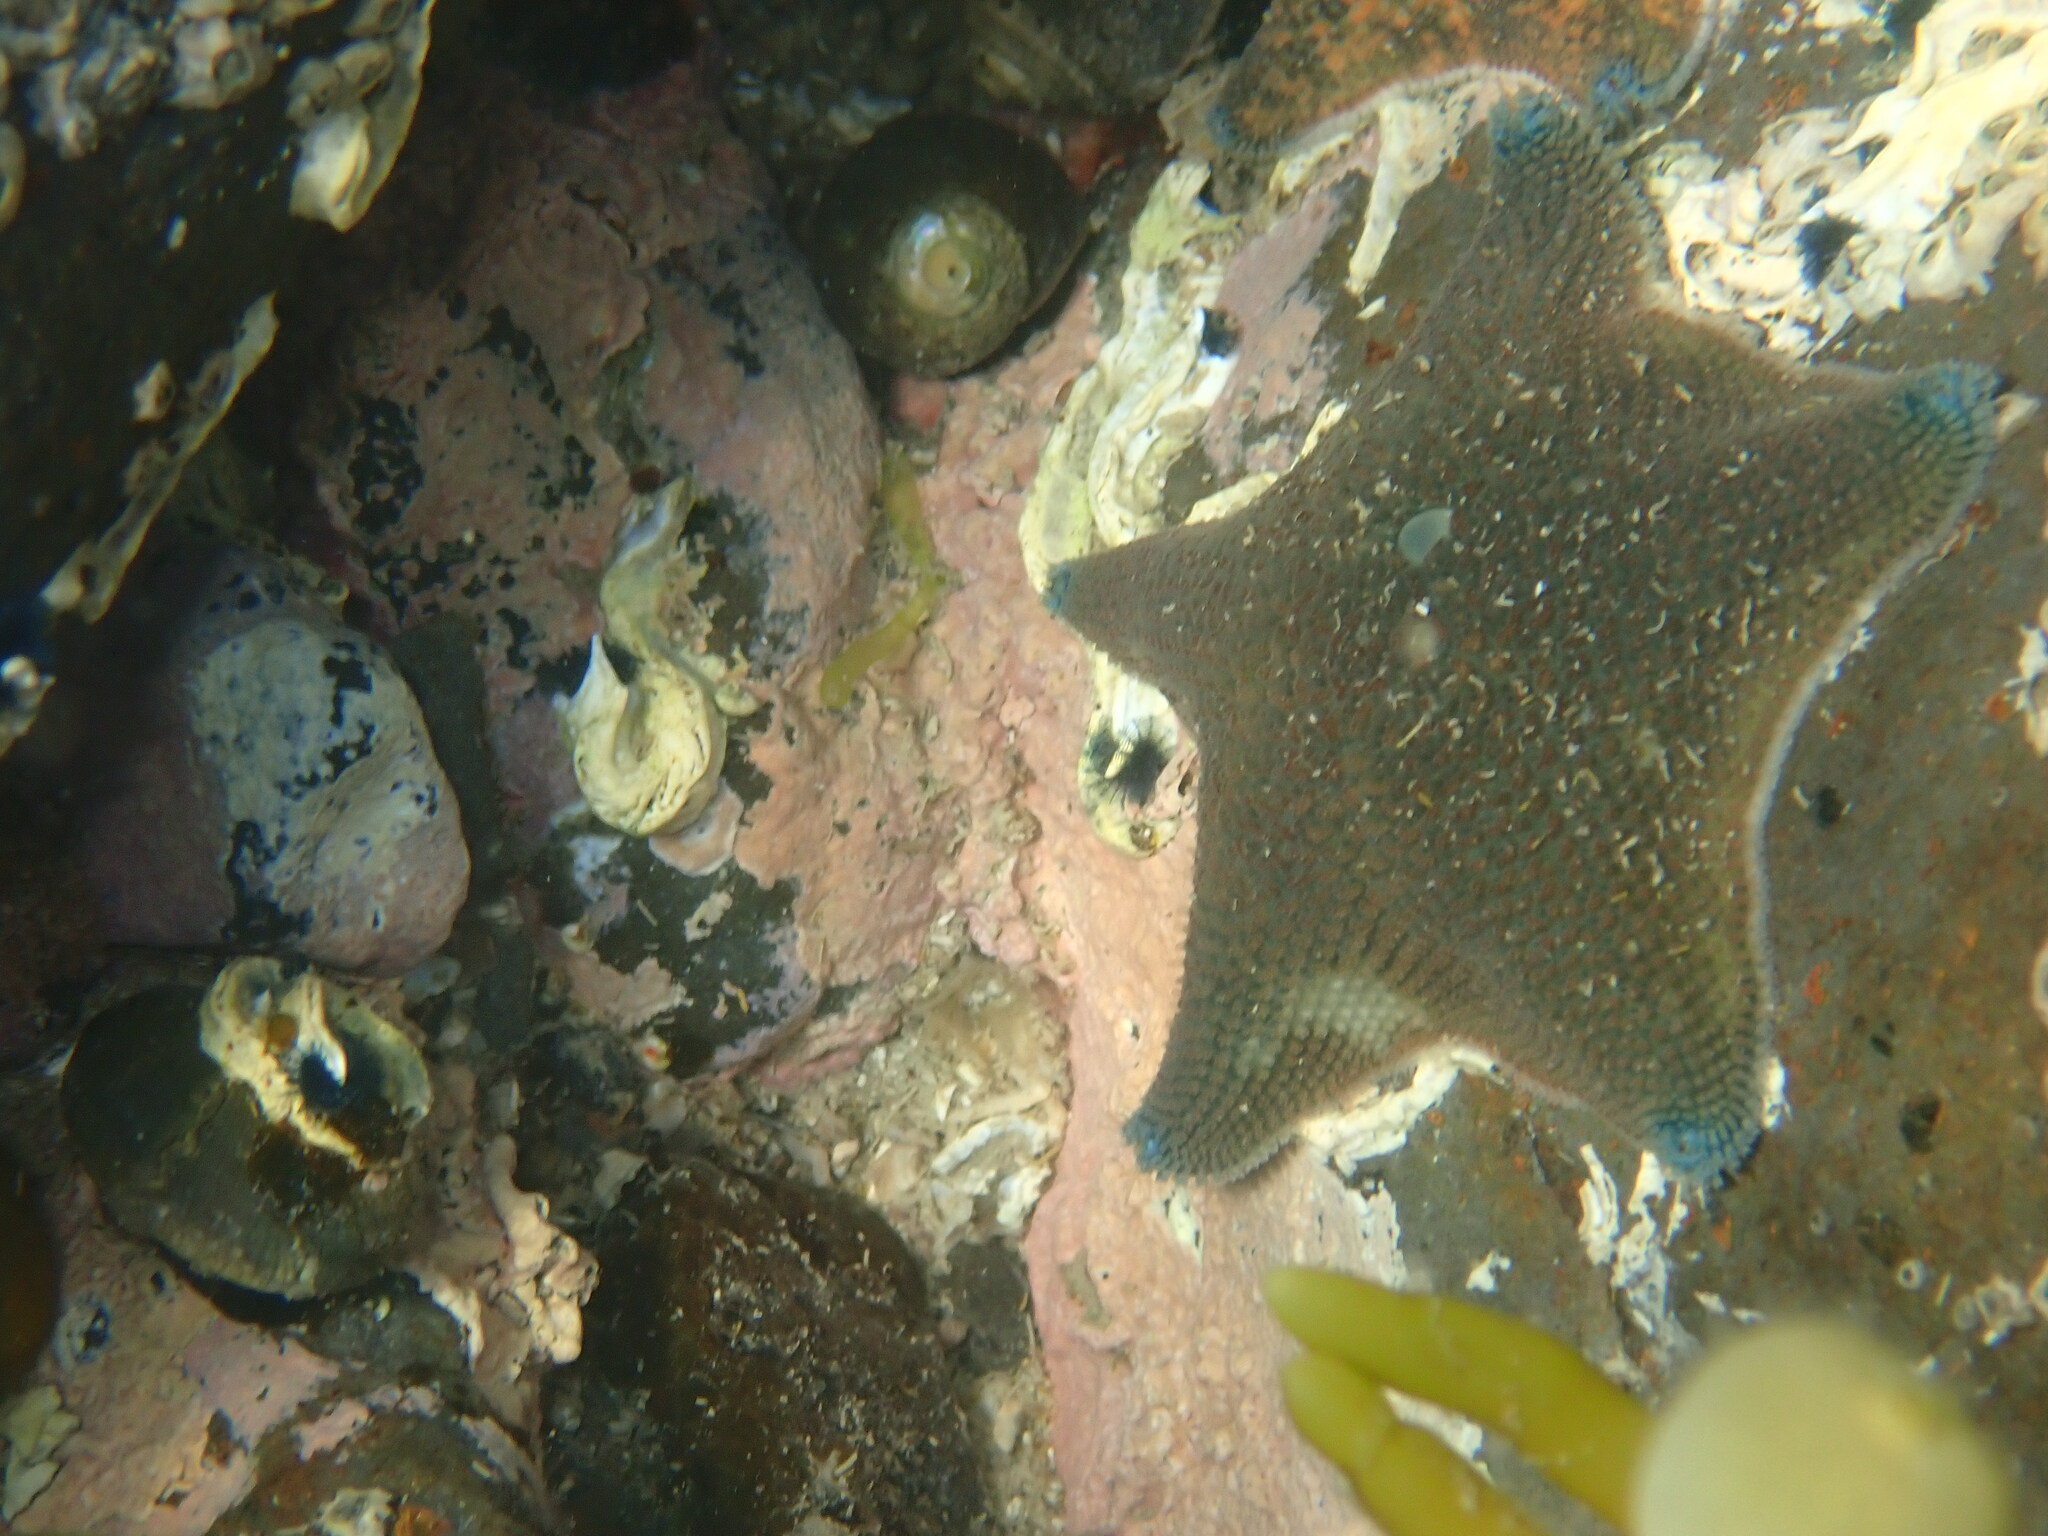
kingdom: Animalia
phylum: Echinodermata
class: Asteroidea
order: Valvatida
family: Asterinidae
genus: Patiriella
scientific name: Patiriella regularis
